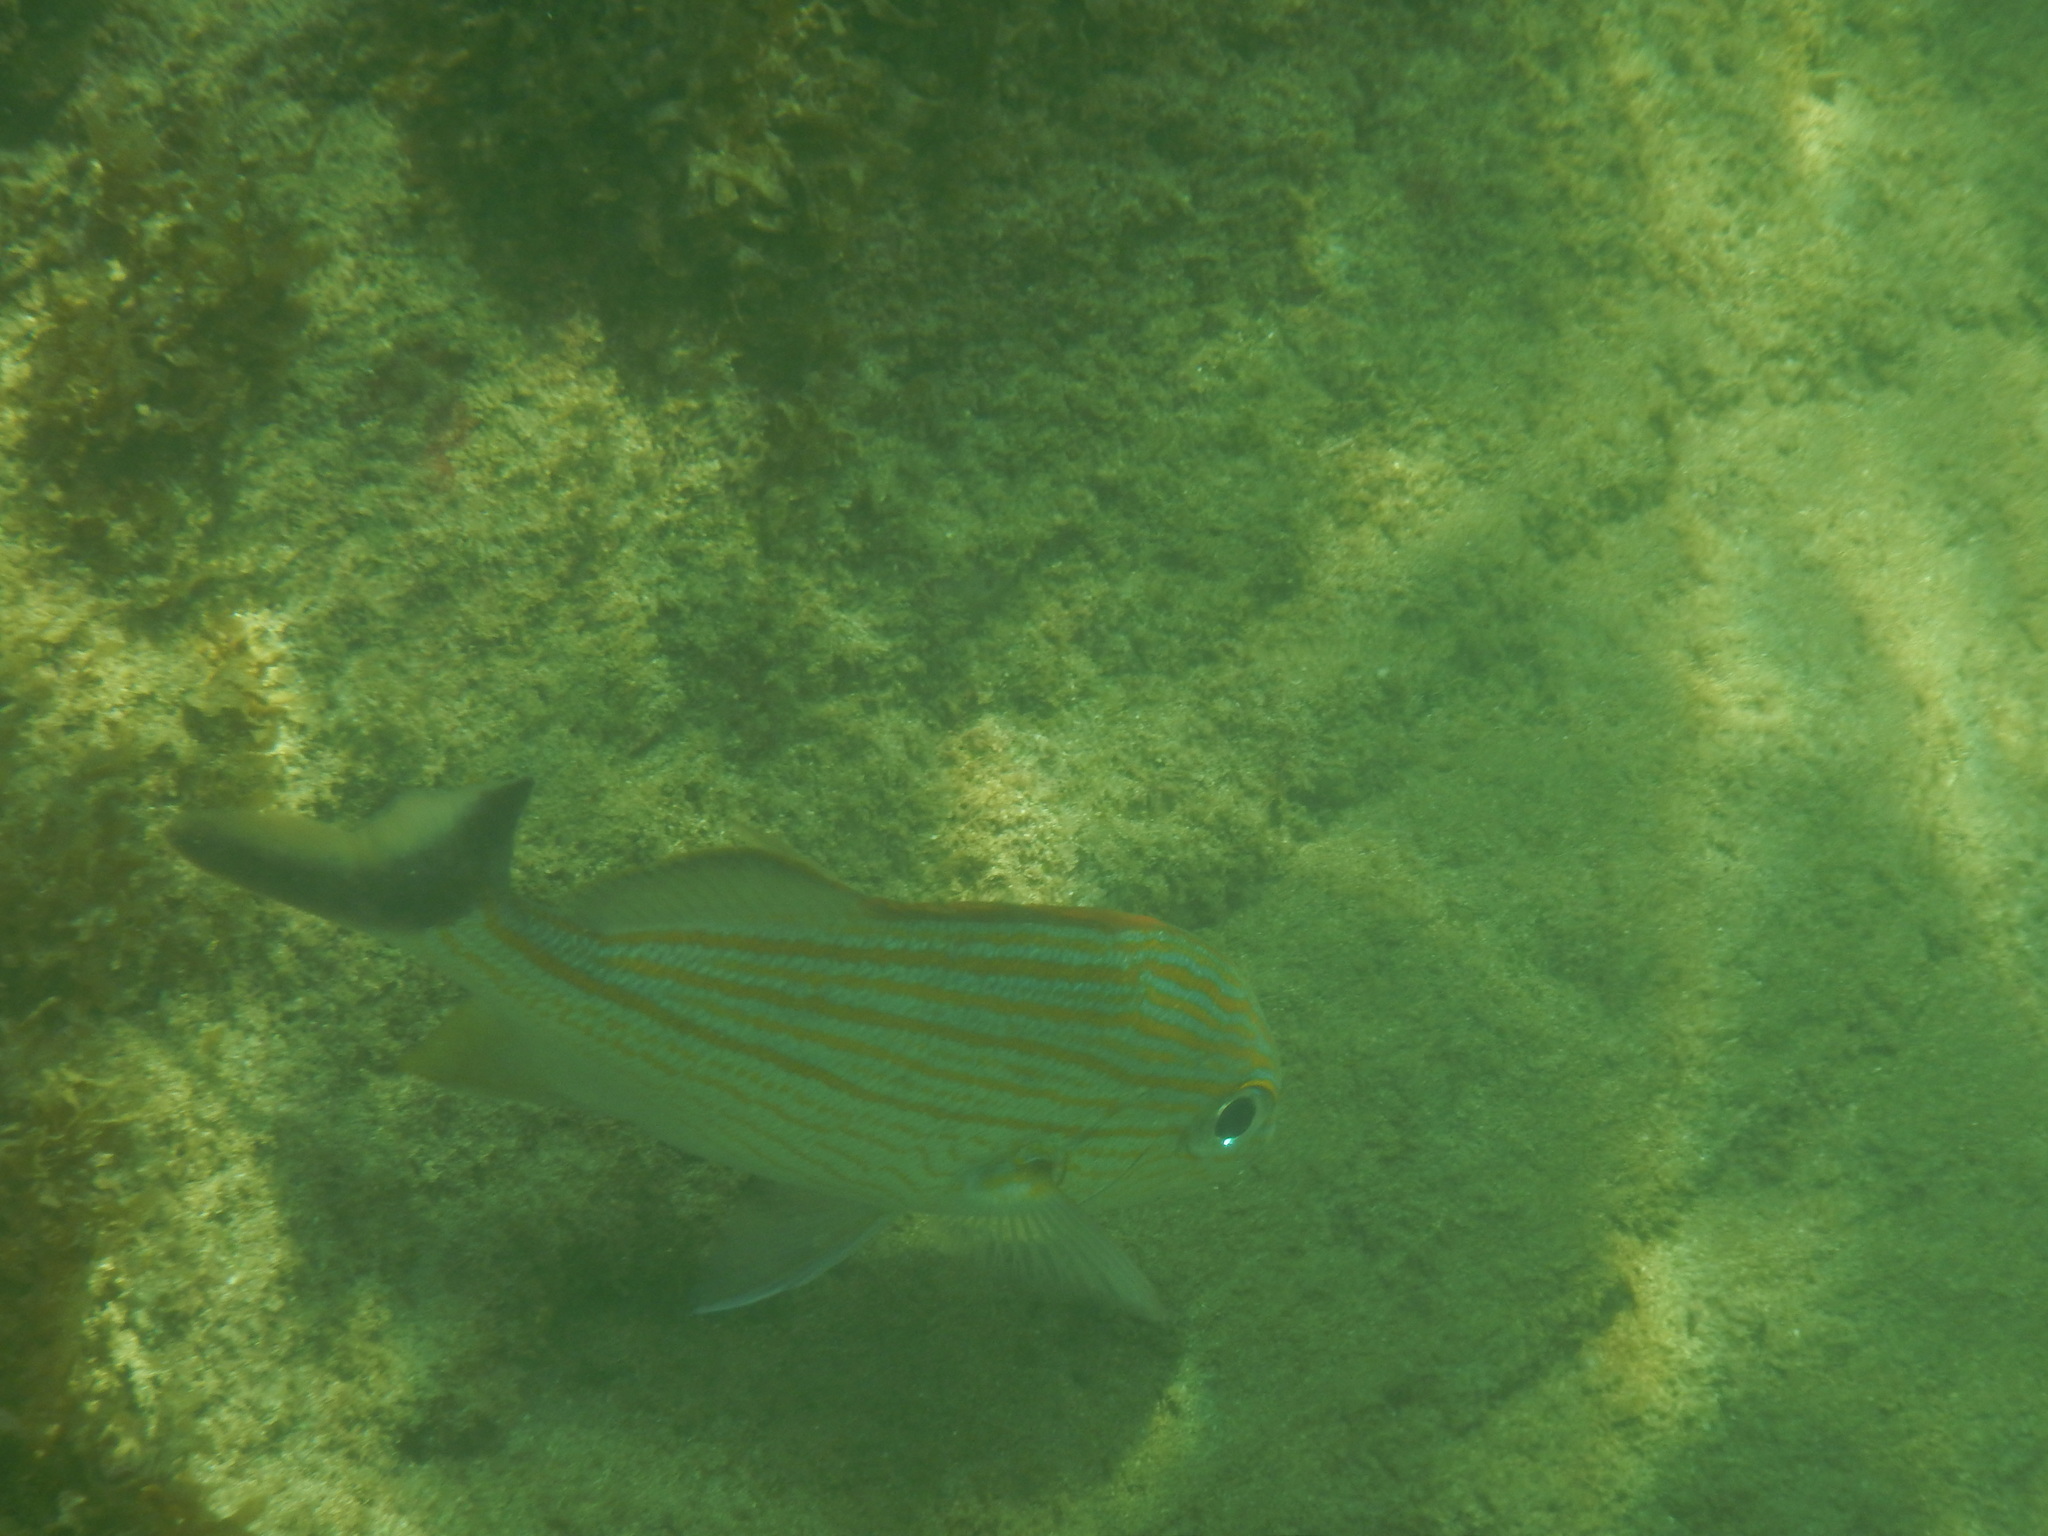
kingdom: Animalia
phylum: Chordata
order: Perciformes
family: Haemulidae
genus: Haemulon
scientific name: Haemulon carbonarium
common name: Caesar grunt
